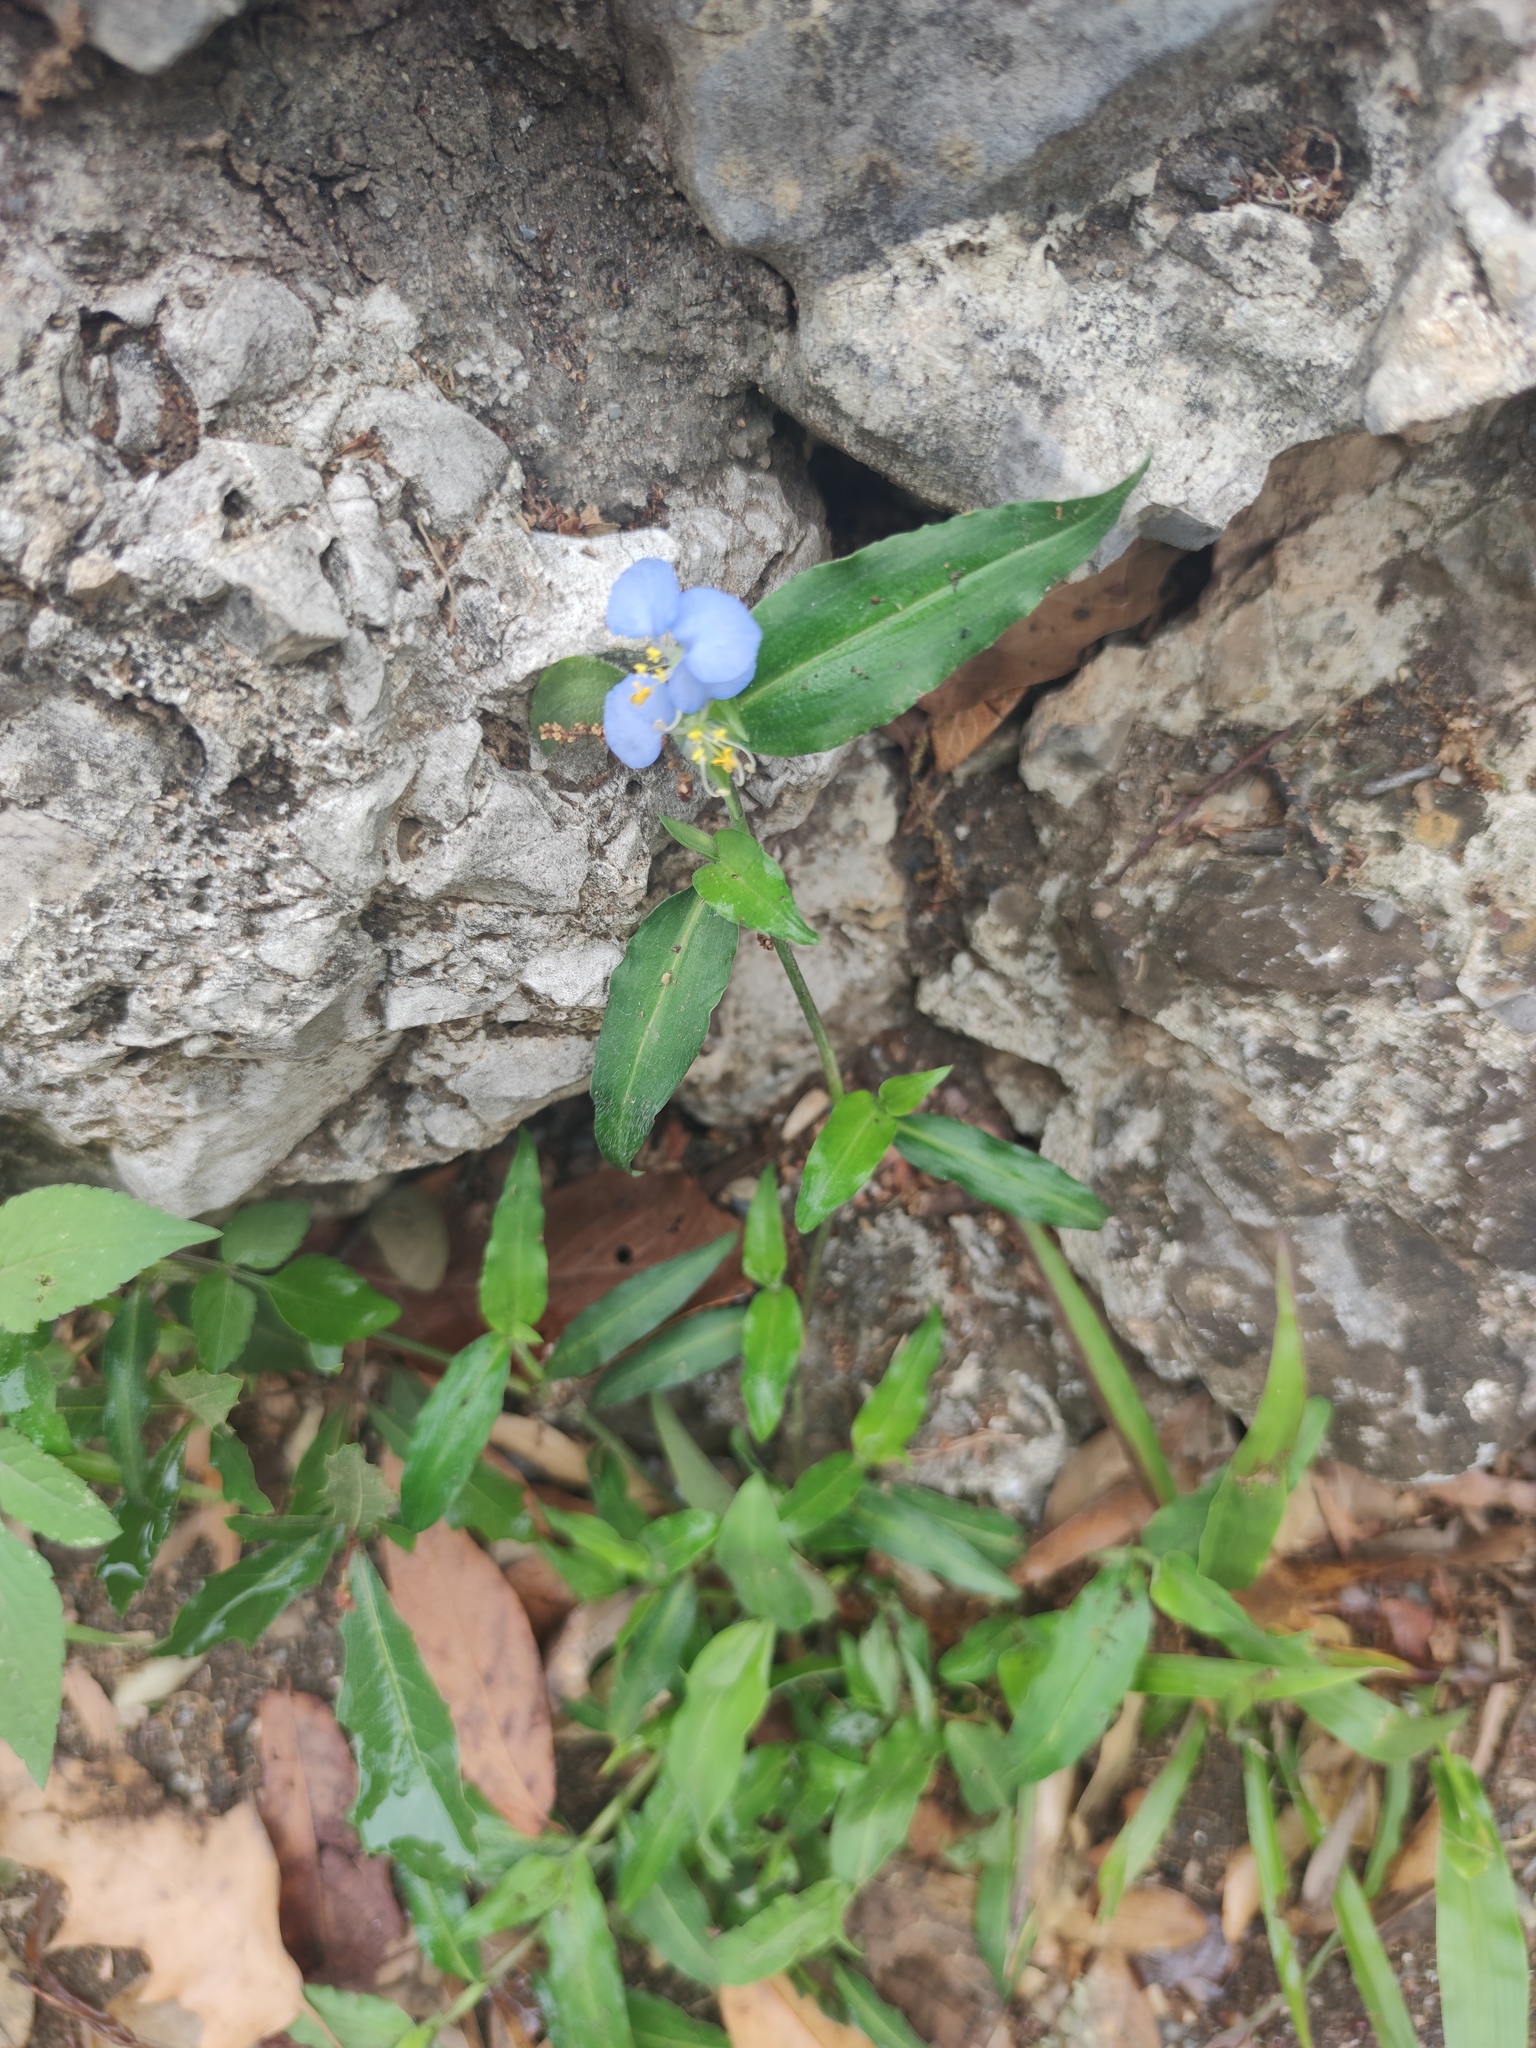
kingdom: Plantae
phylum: Tracheophyta
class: Liliopsida
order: Commelinales
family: Commelinaceae
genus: Commelina
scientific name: Commelina erecta
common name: Blousel blommetjie
